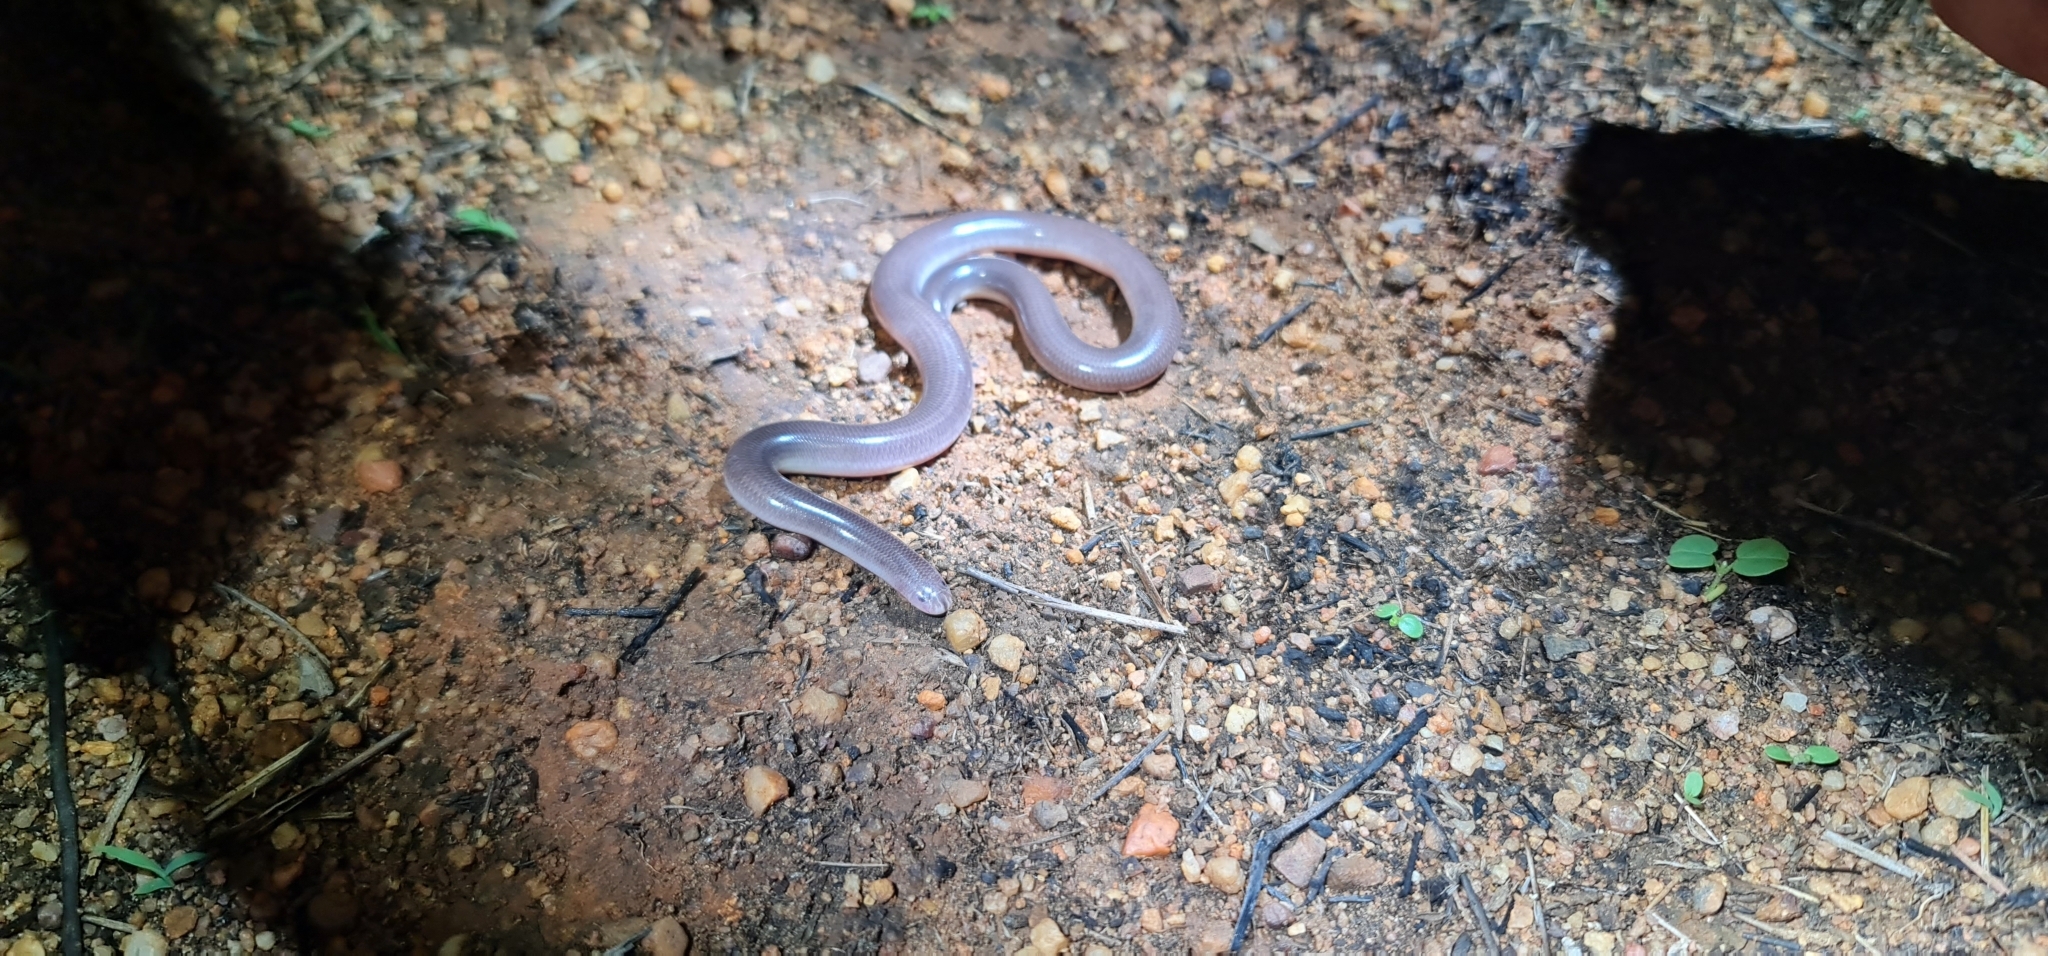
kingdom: Animalia
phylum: Chordata
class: Squamata
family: Typhlopidae
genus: Anilios
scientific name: Anilios ligatus
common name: Robust blind snake
